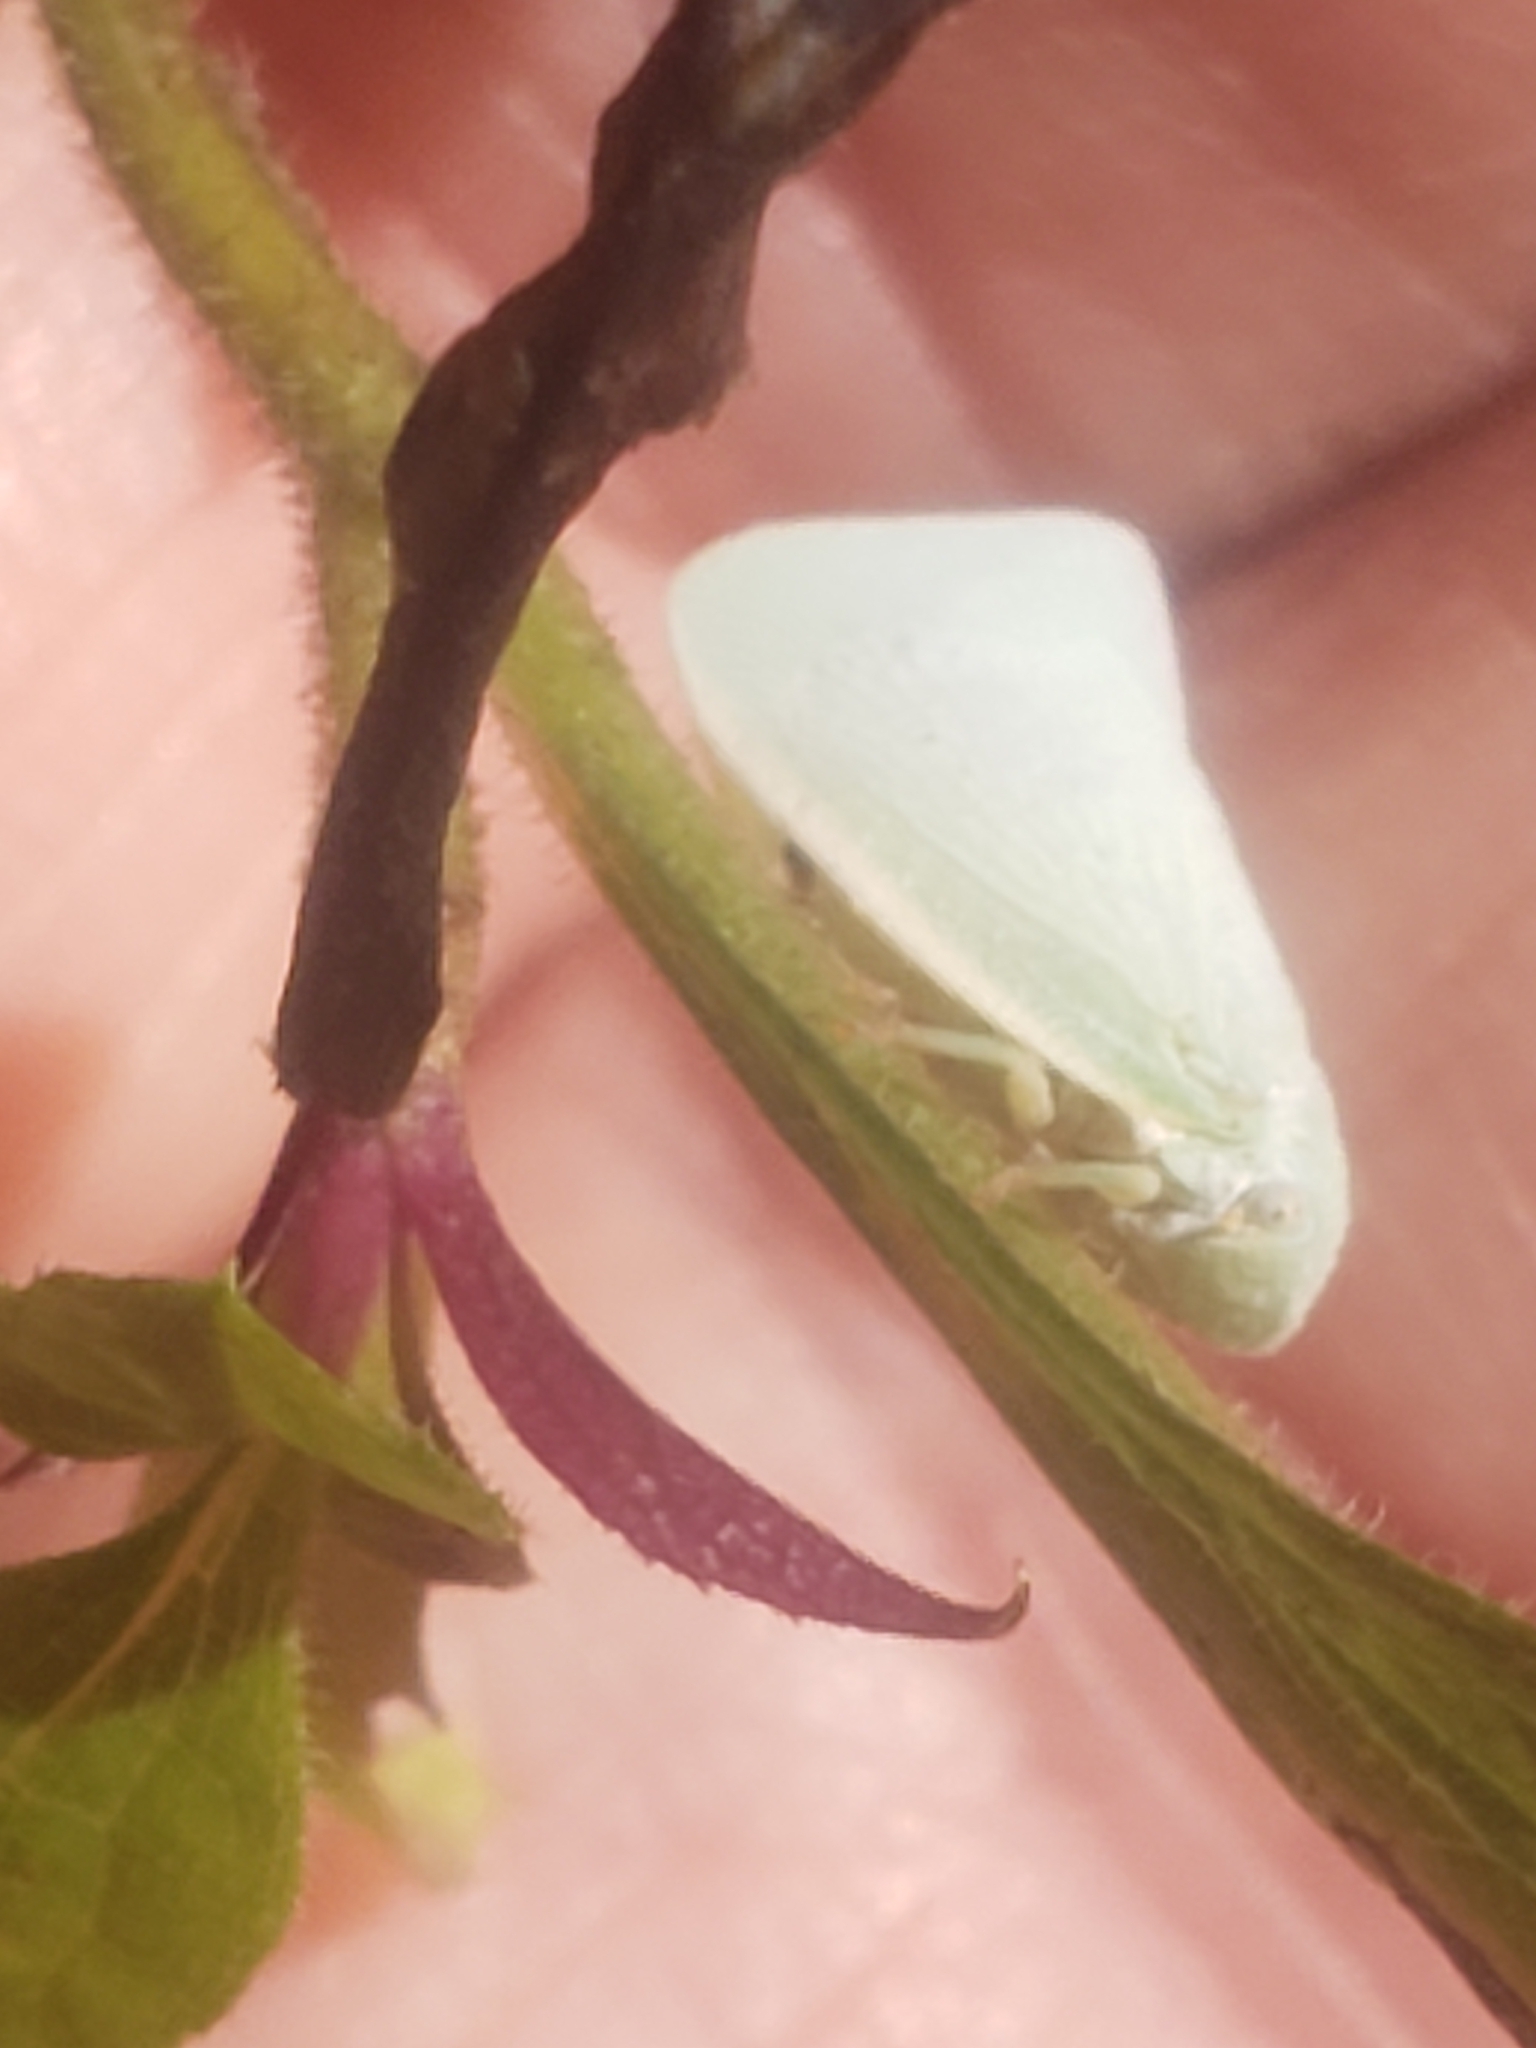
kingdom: Animalia
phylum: Arthropoda
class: Insecta
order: Hemiptera
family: Flatidae
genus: Flatormenis
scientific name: Flatormenis proxima
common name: Northern flatid planthopper
